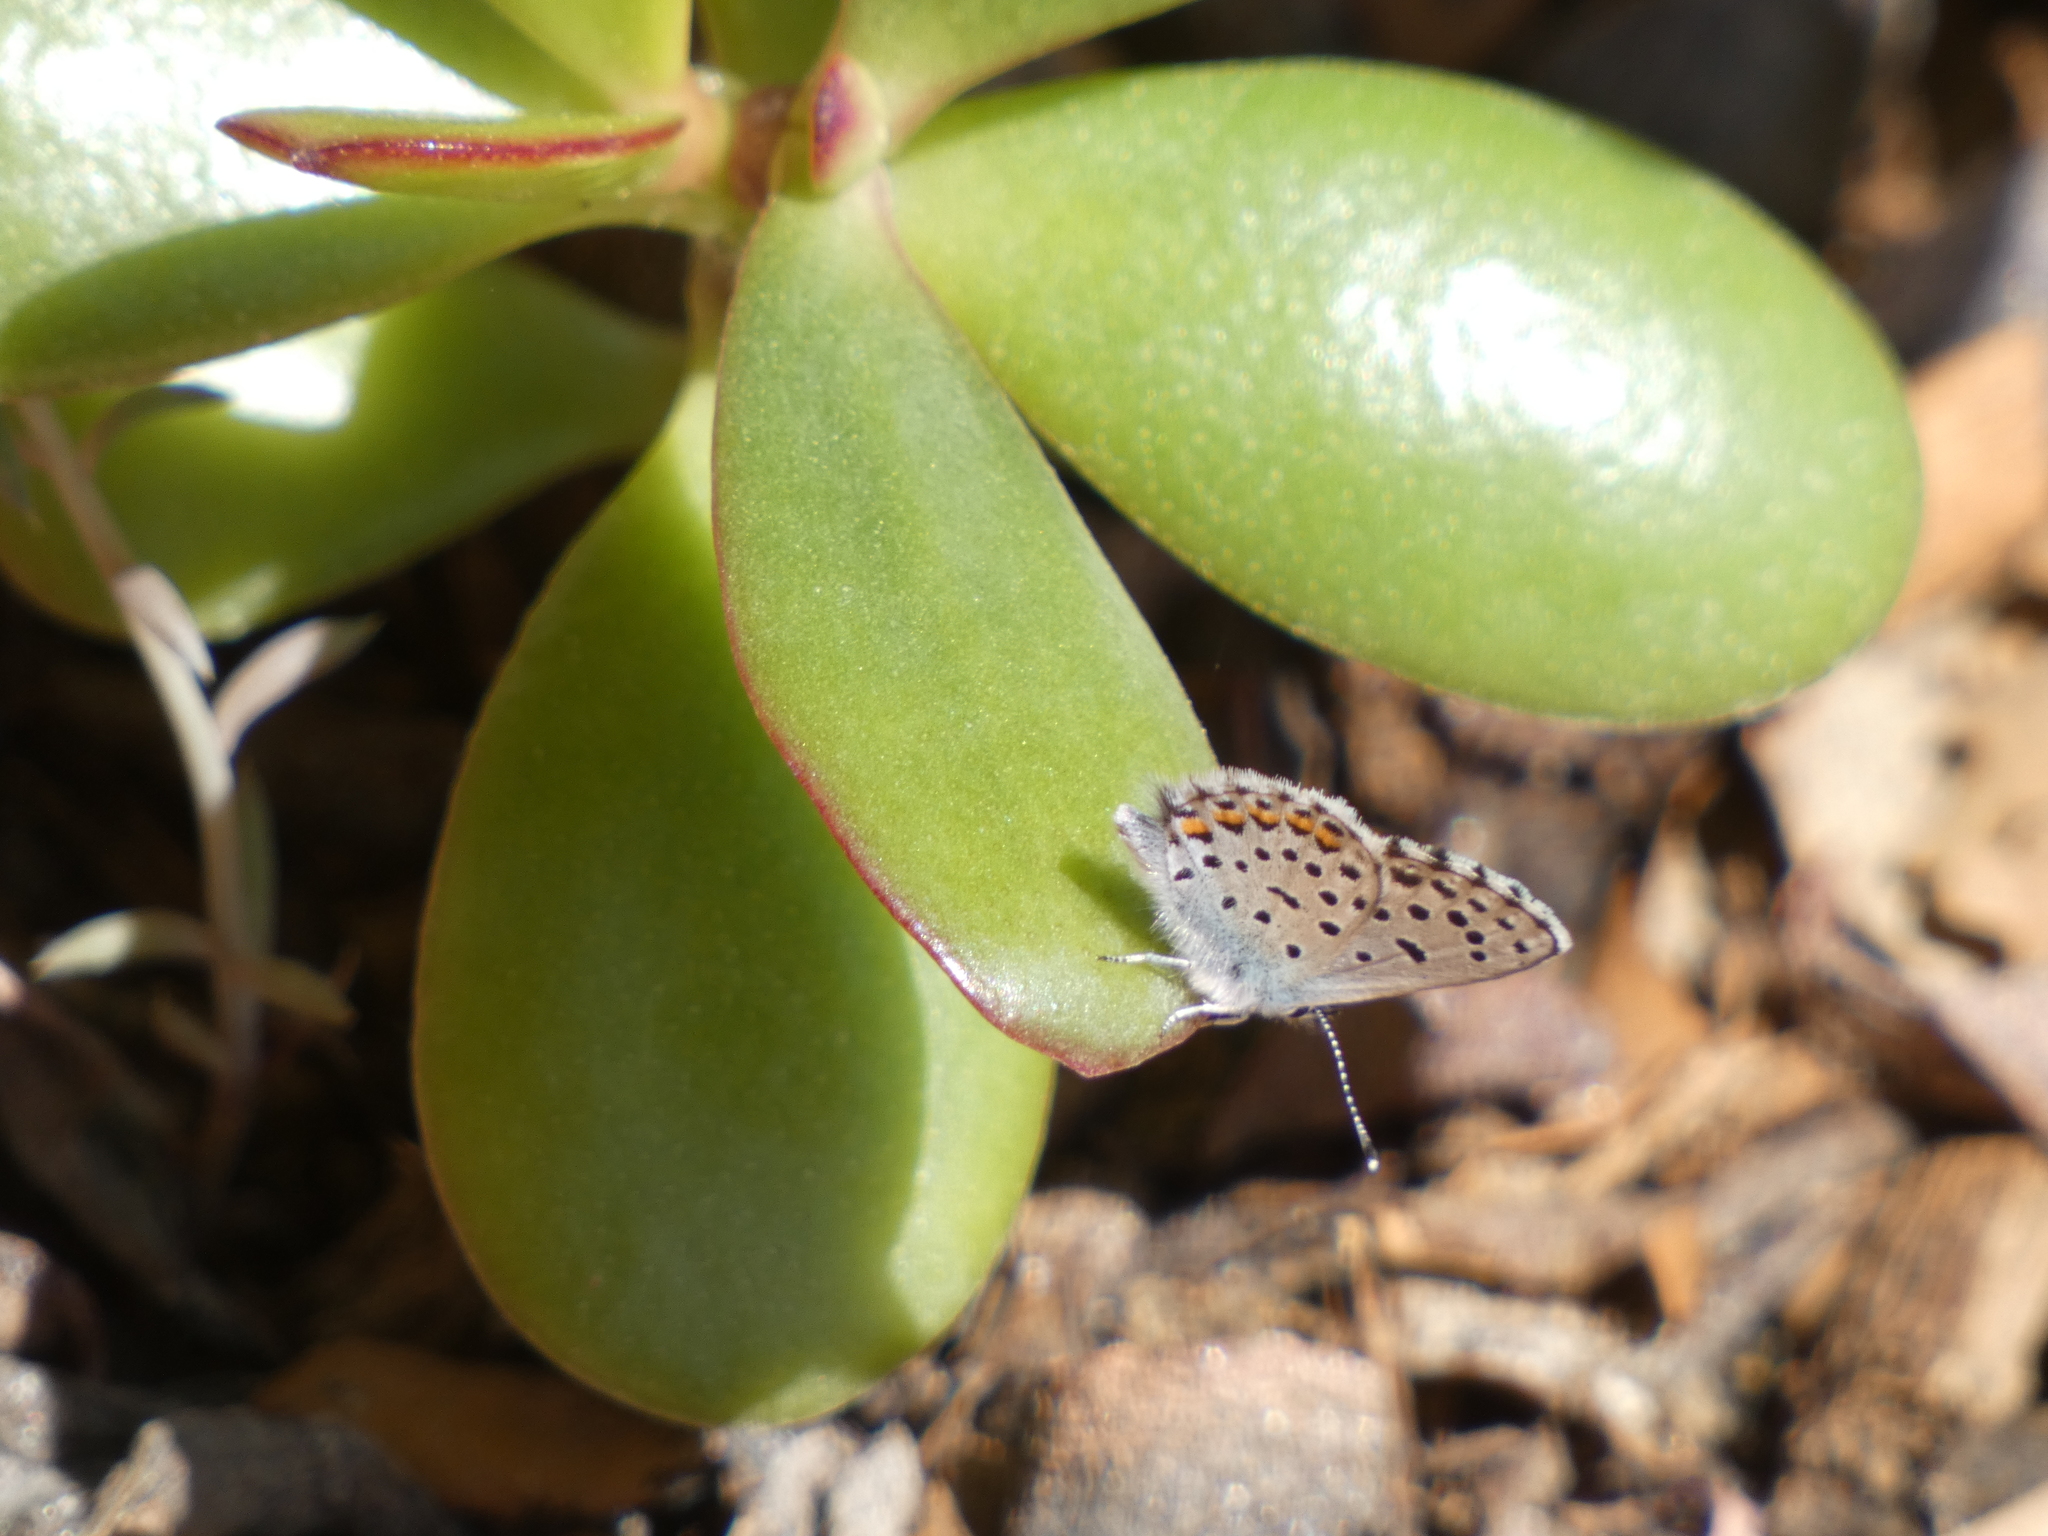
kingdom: Animalia
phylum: Arthropoda
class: Insecta
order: Lepidoptera
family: Lycaenidae
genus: Pseudophilotes
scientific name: Pseudophilotes baton
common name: Baton blue
